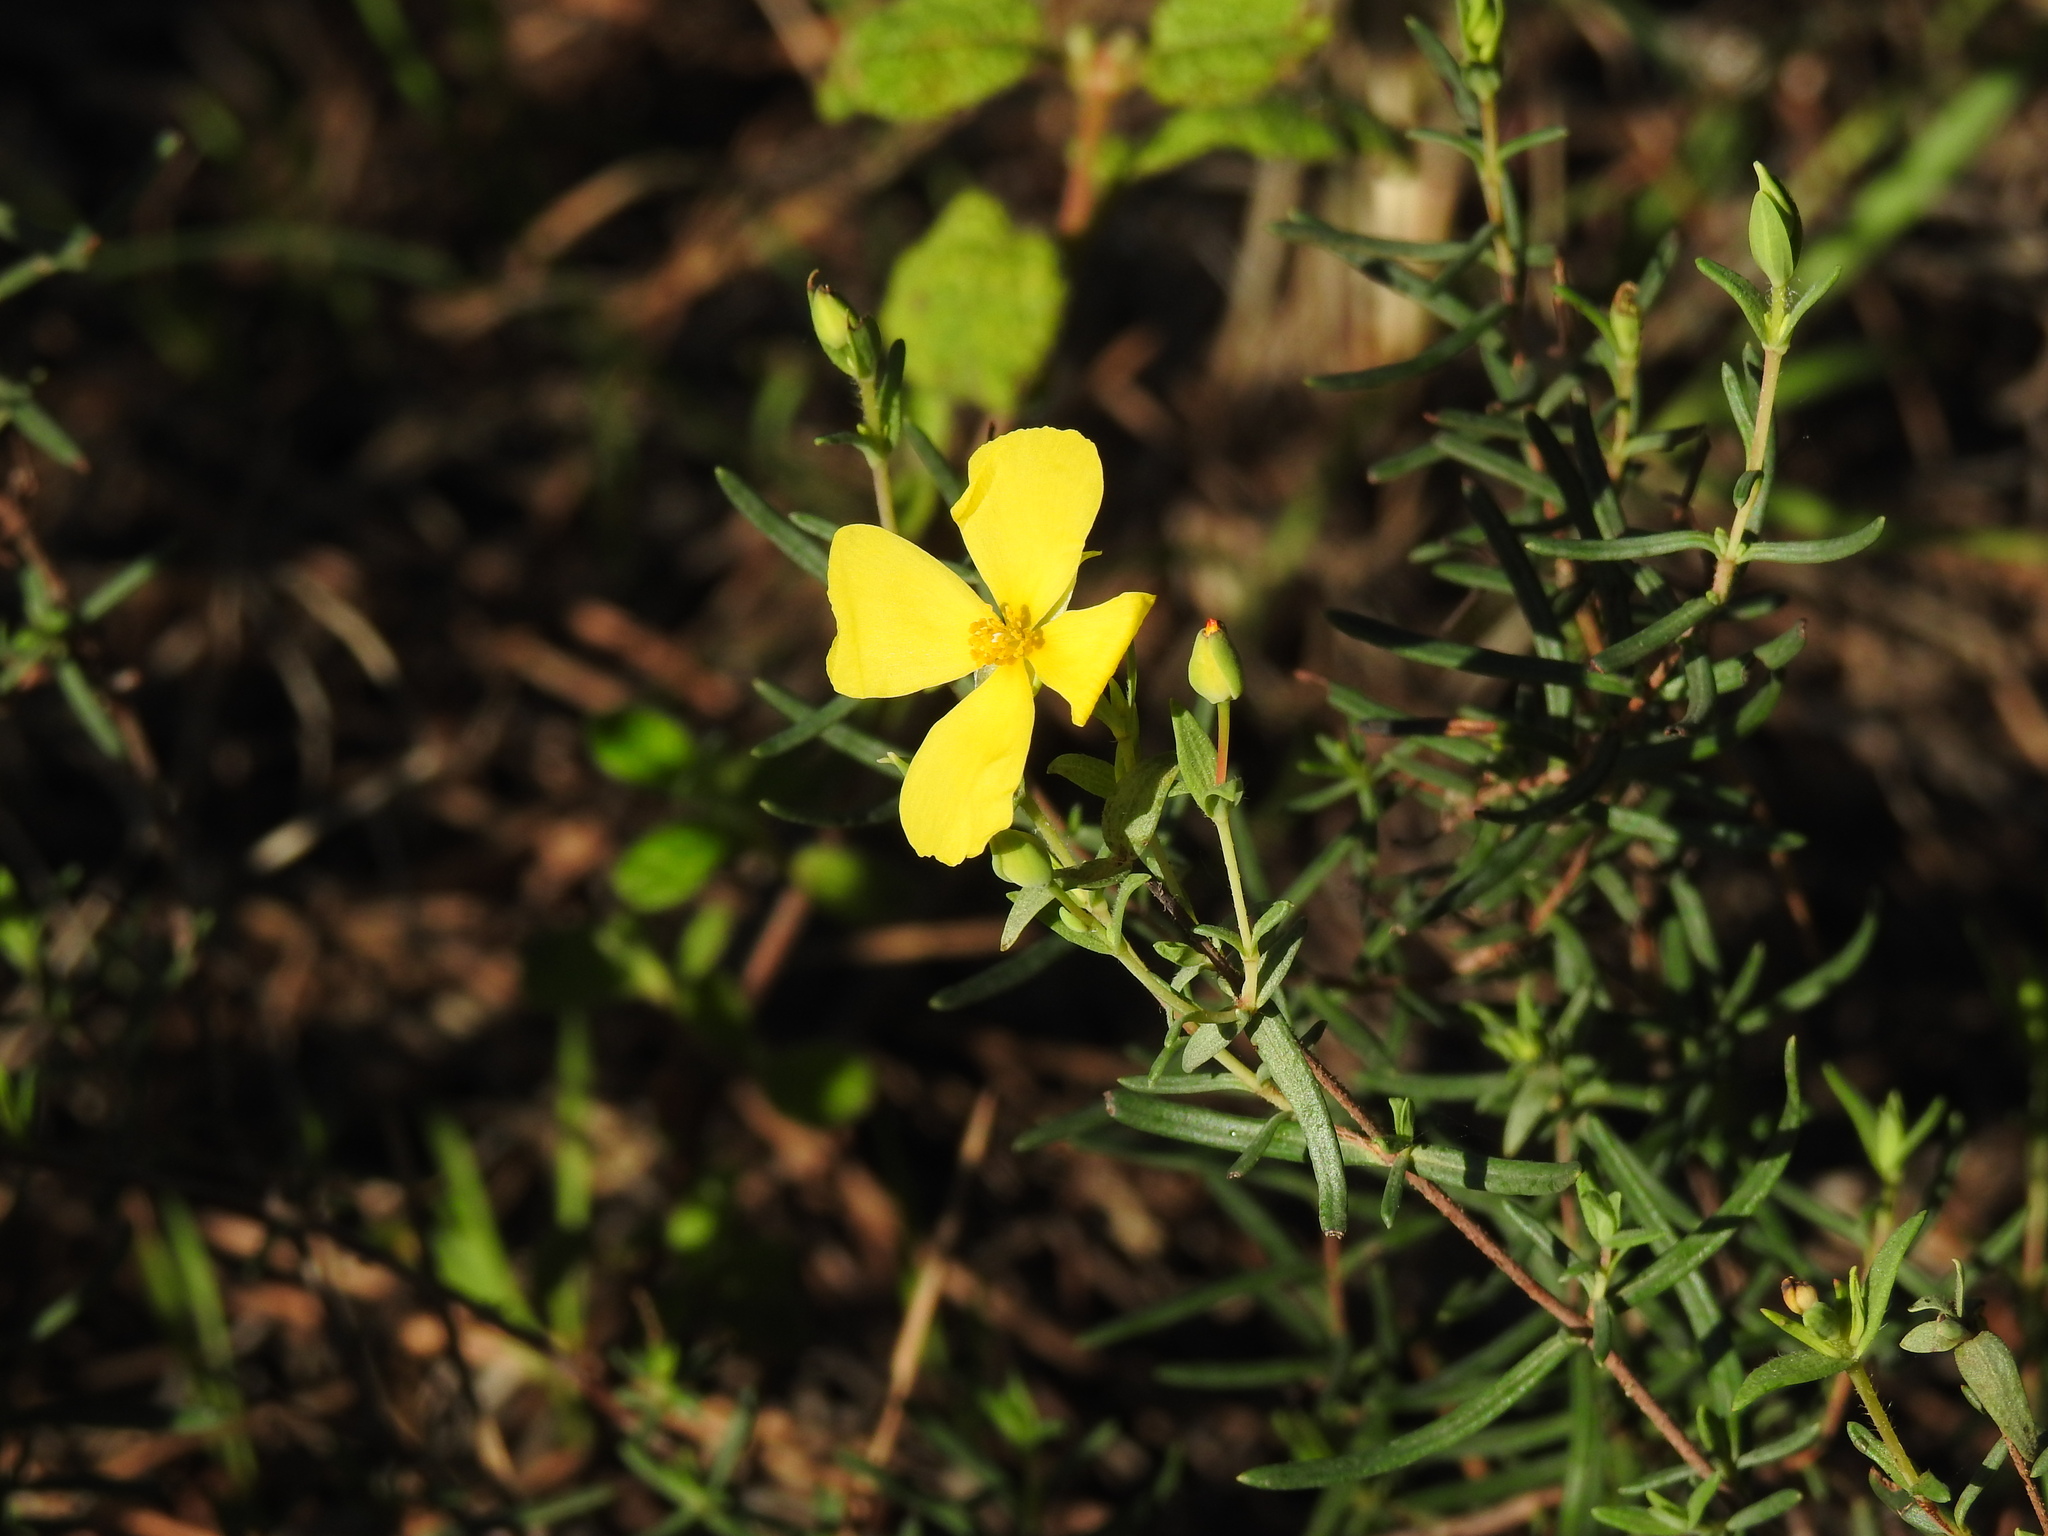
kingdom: Plantae
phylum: Tracheophyta
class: Magnoliopsida
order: Malvales
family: Cistaceae
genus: Halimium
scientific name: Halimium calycinum
